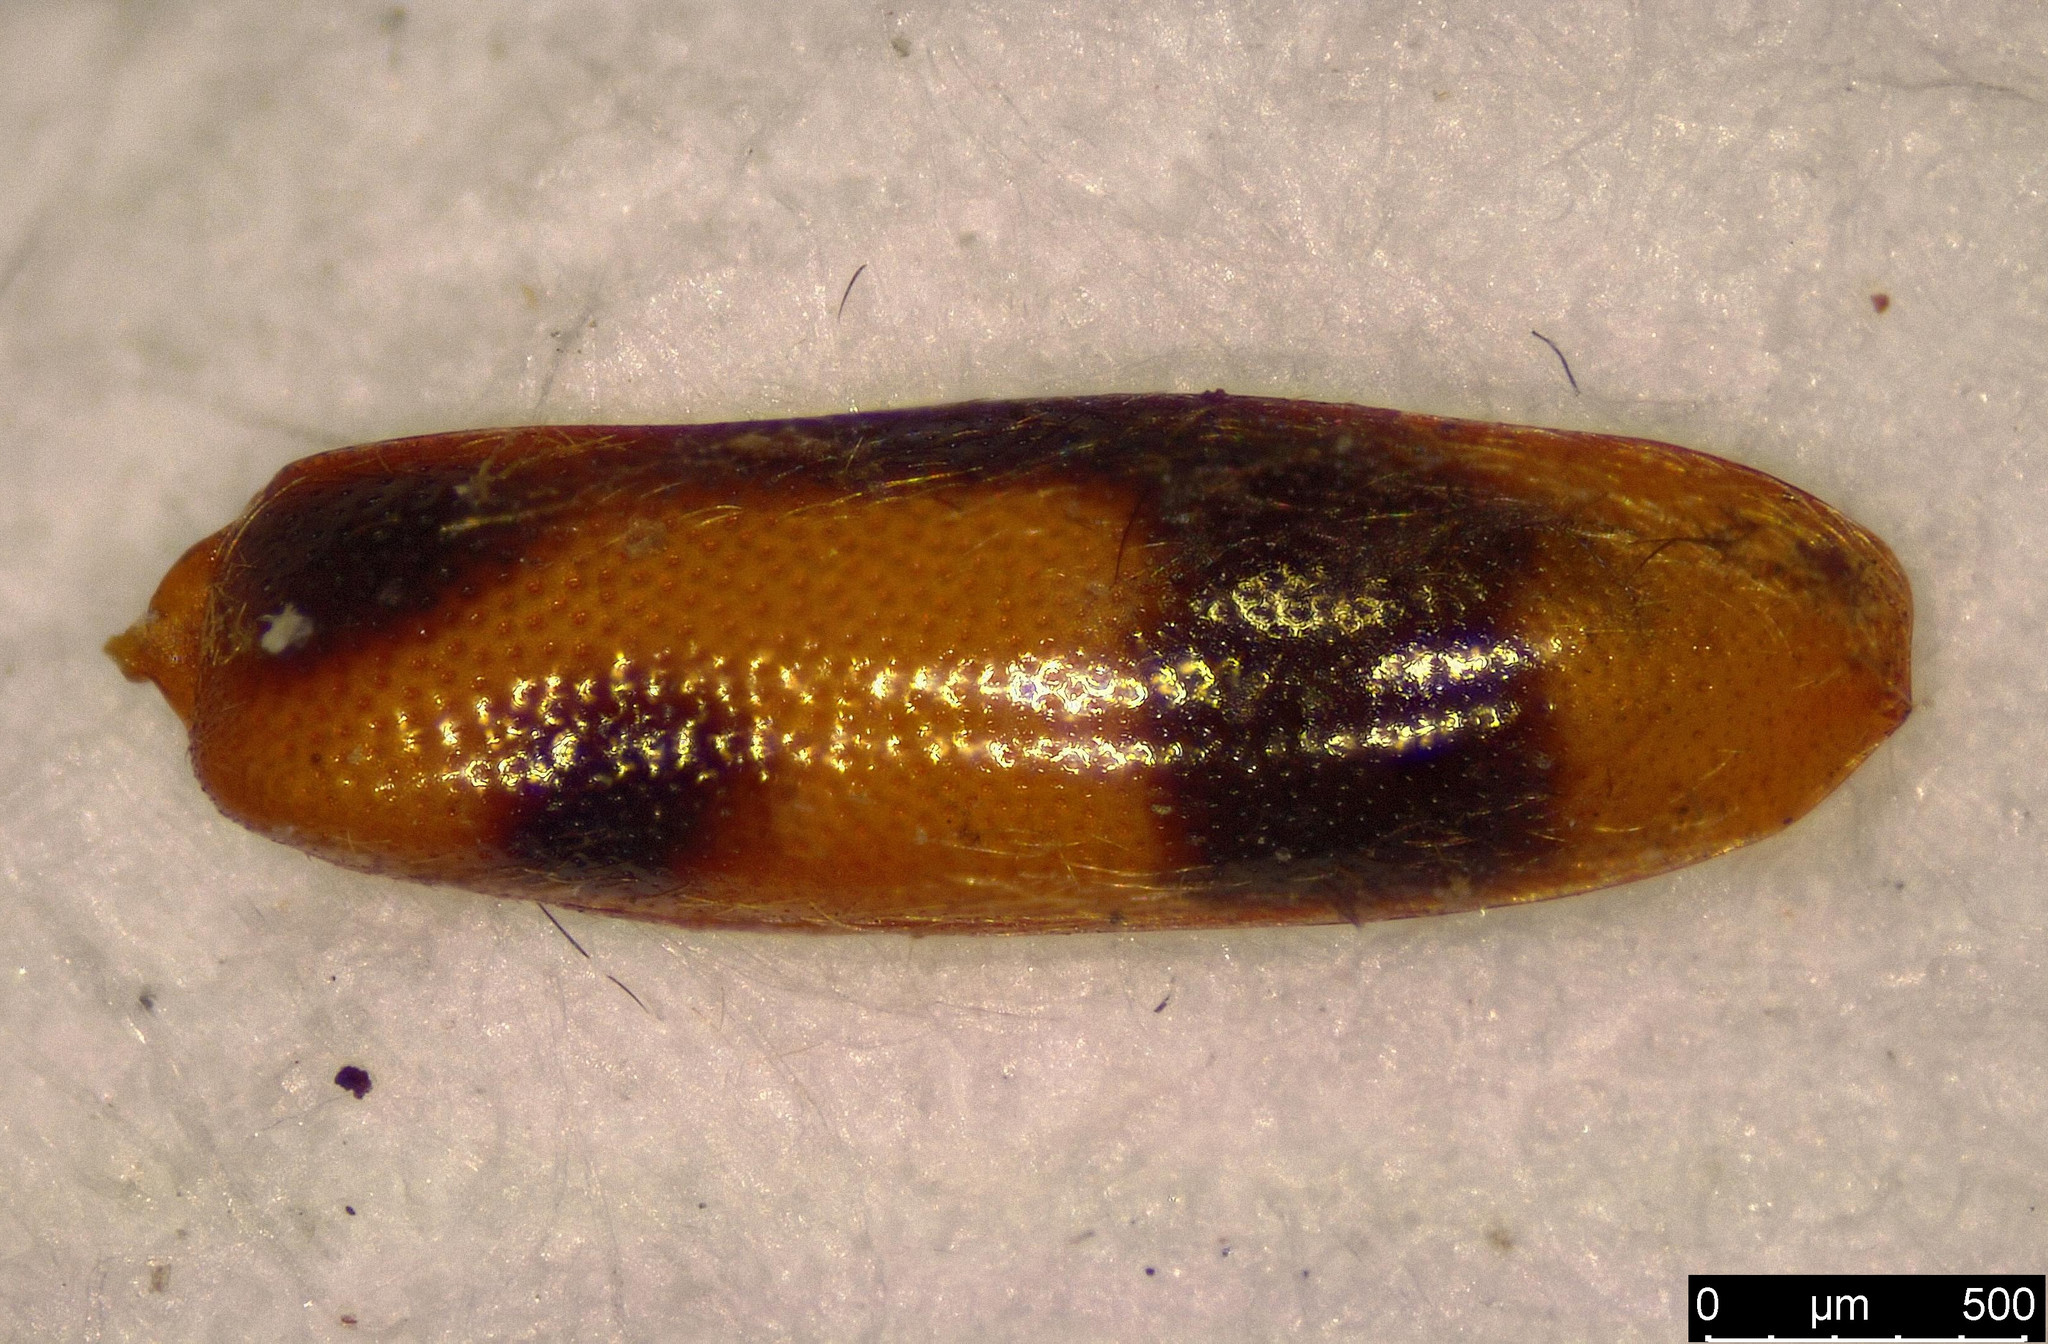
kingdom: Animalia
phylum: Arthropoda
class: Insecta
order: Coleoptera
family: Anthicidae
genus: Notoxus
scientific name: Notoxus monoceros
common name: Monoceros beetle
